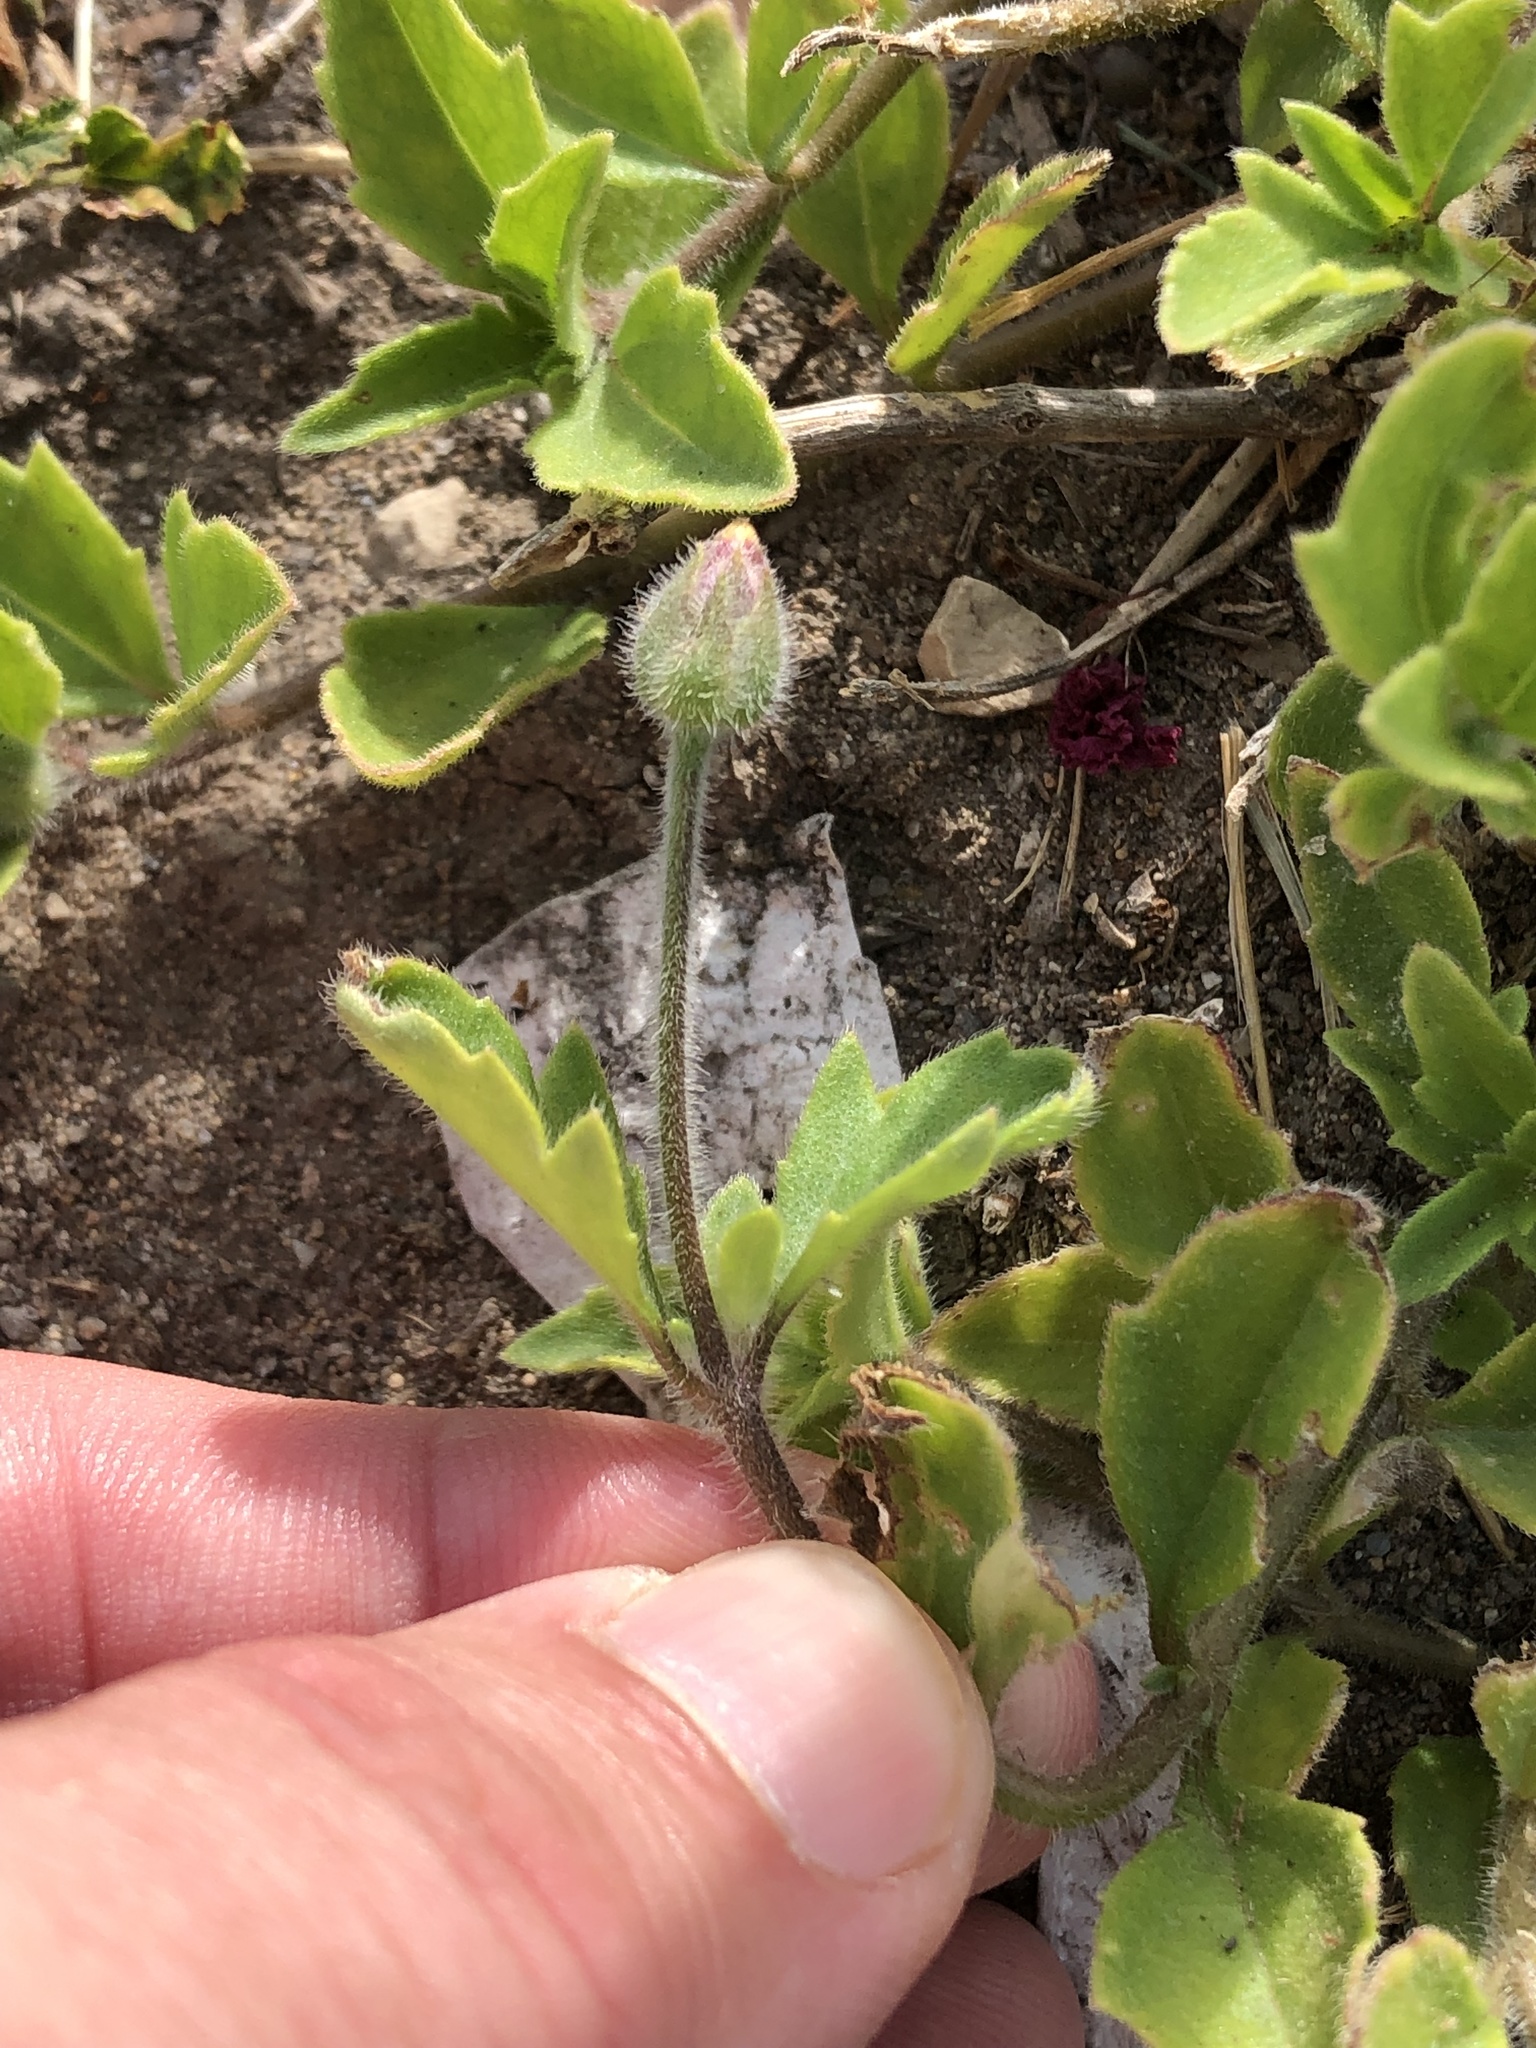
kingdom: Plantae
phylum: Tracheophyta
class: Magnoliopsida
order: Asterales
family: Asteraceae
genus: Tridax
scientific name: Tridax procumbens
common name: Coatbuttons
